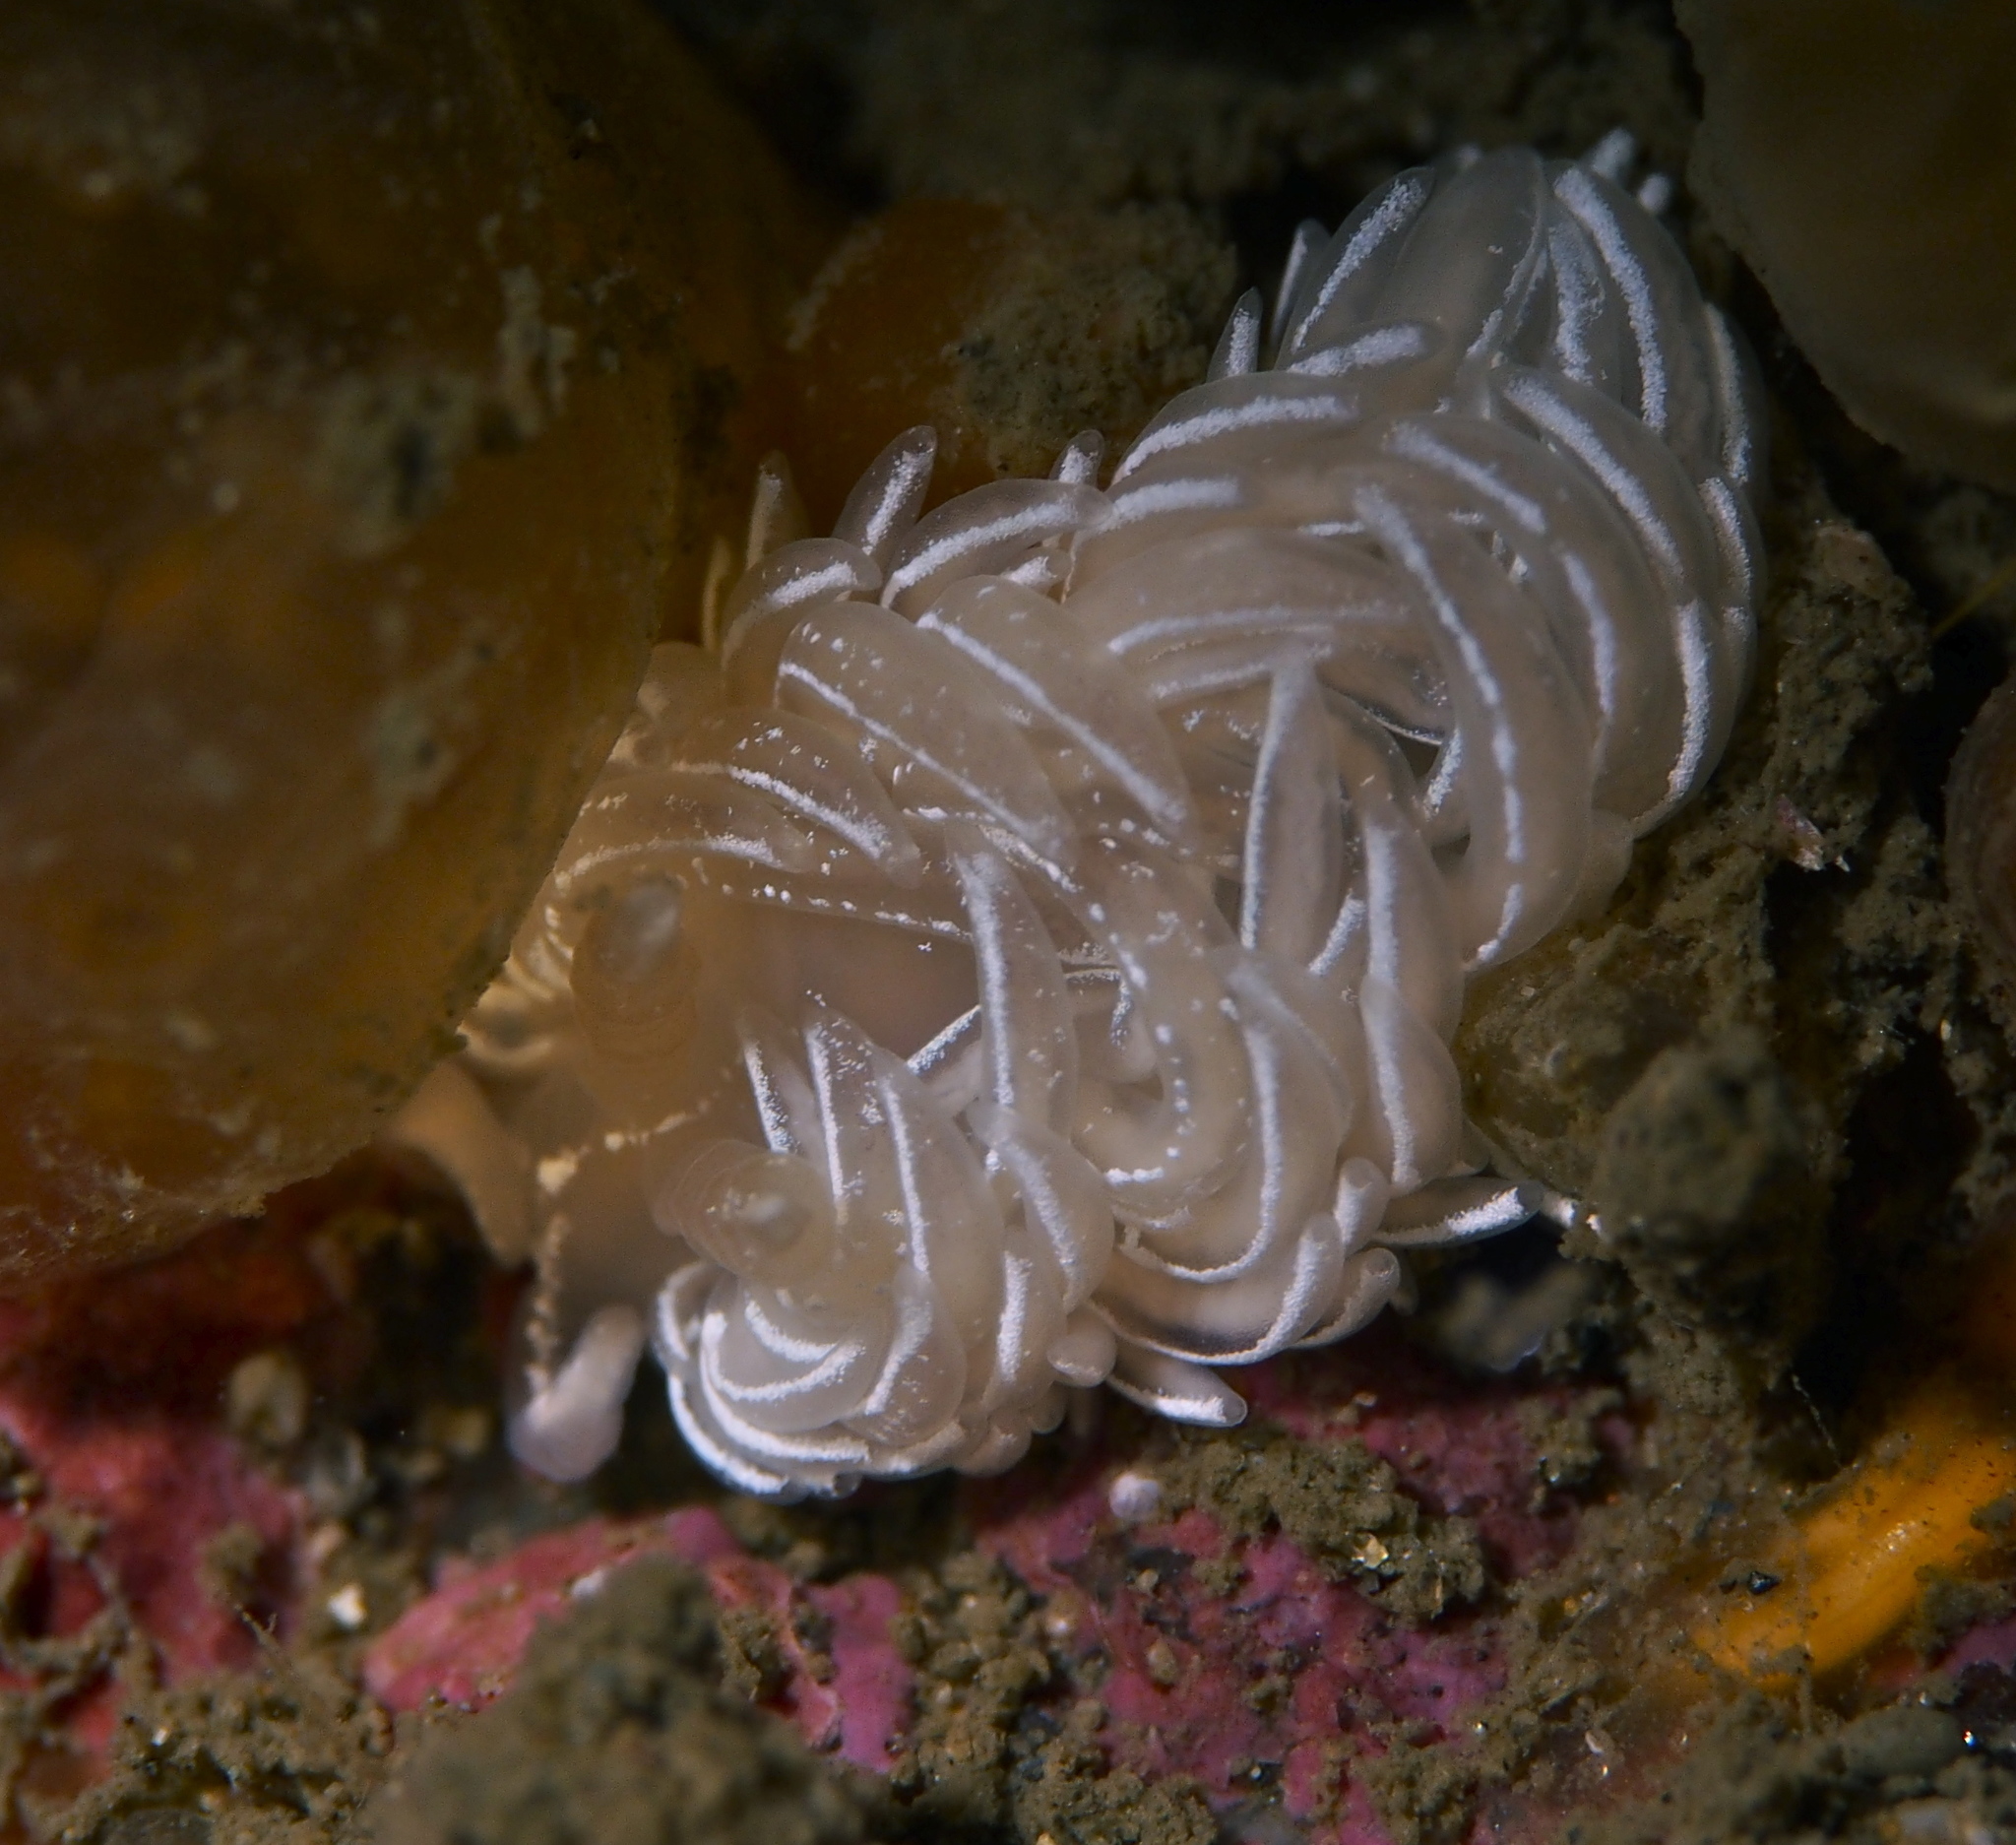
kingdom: Animalia
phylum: Mollusca
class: Gastropoda
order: Nudibranchia
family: Facelinidae
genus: Favorinus
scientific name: Favorinus blianus
